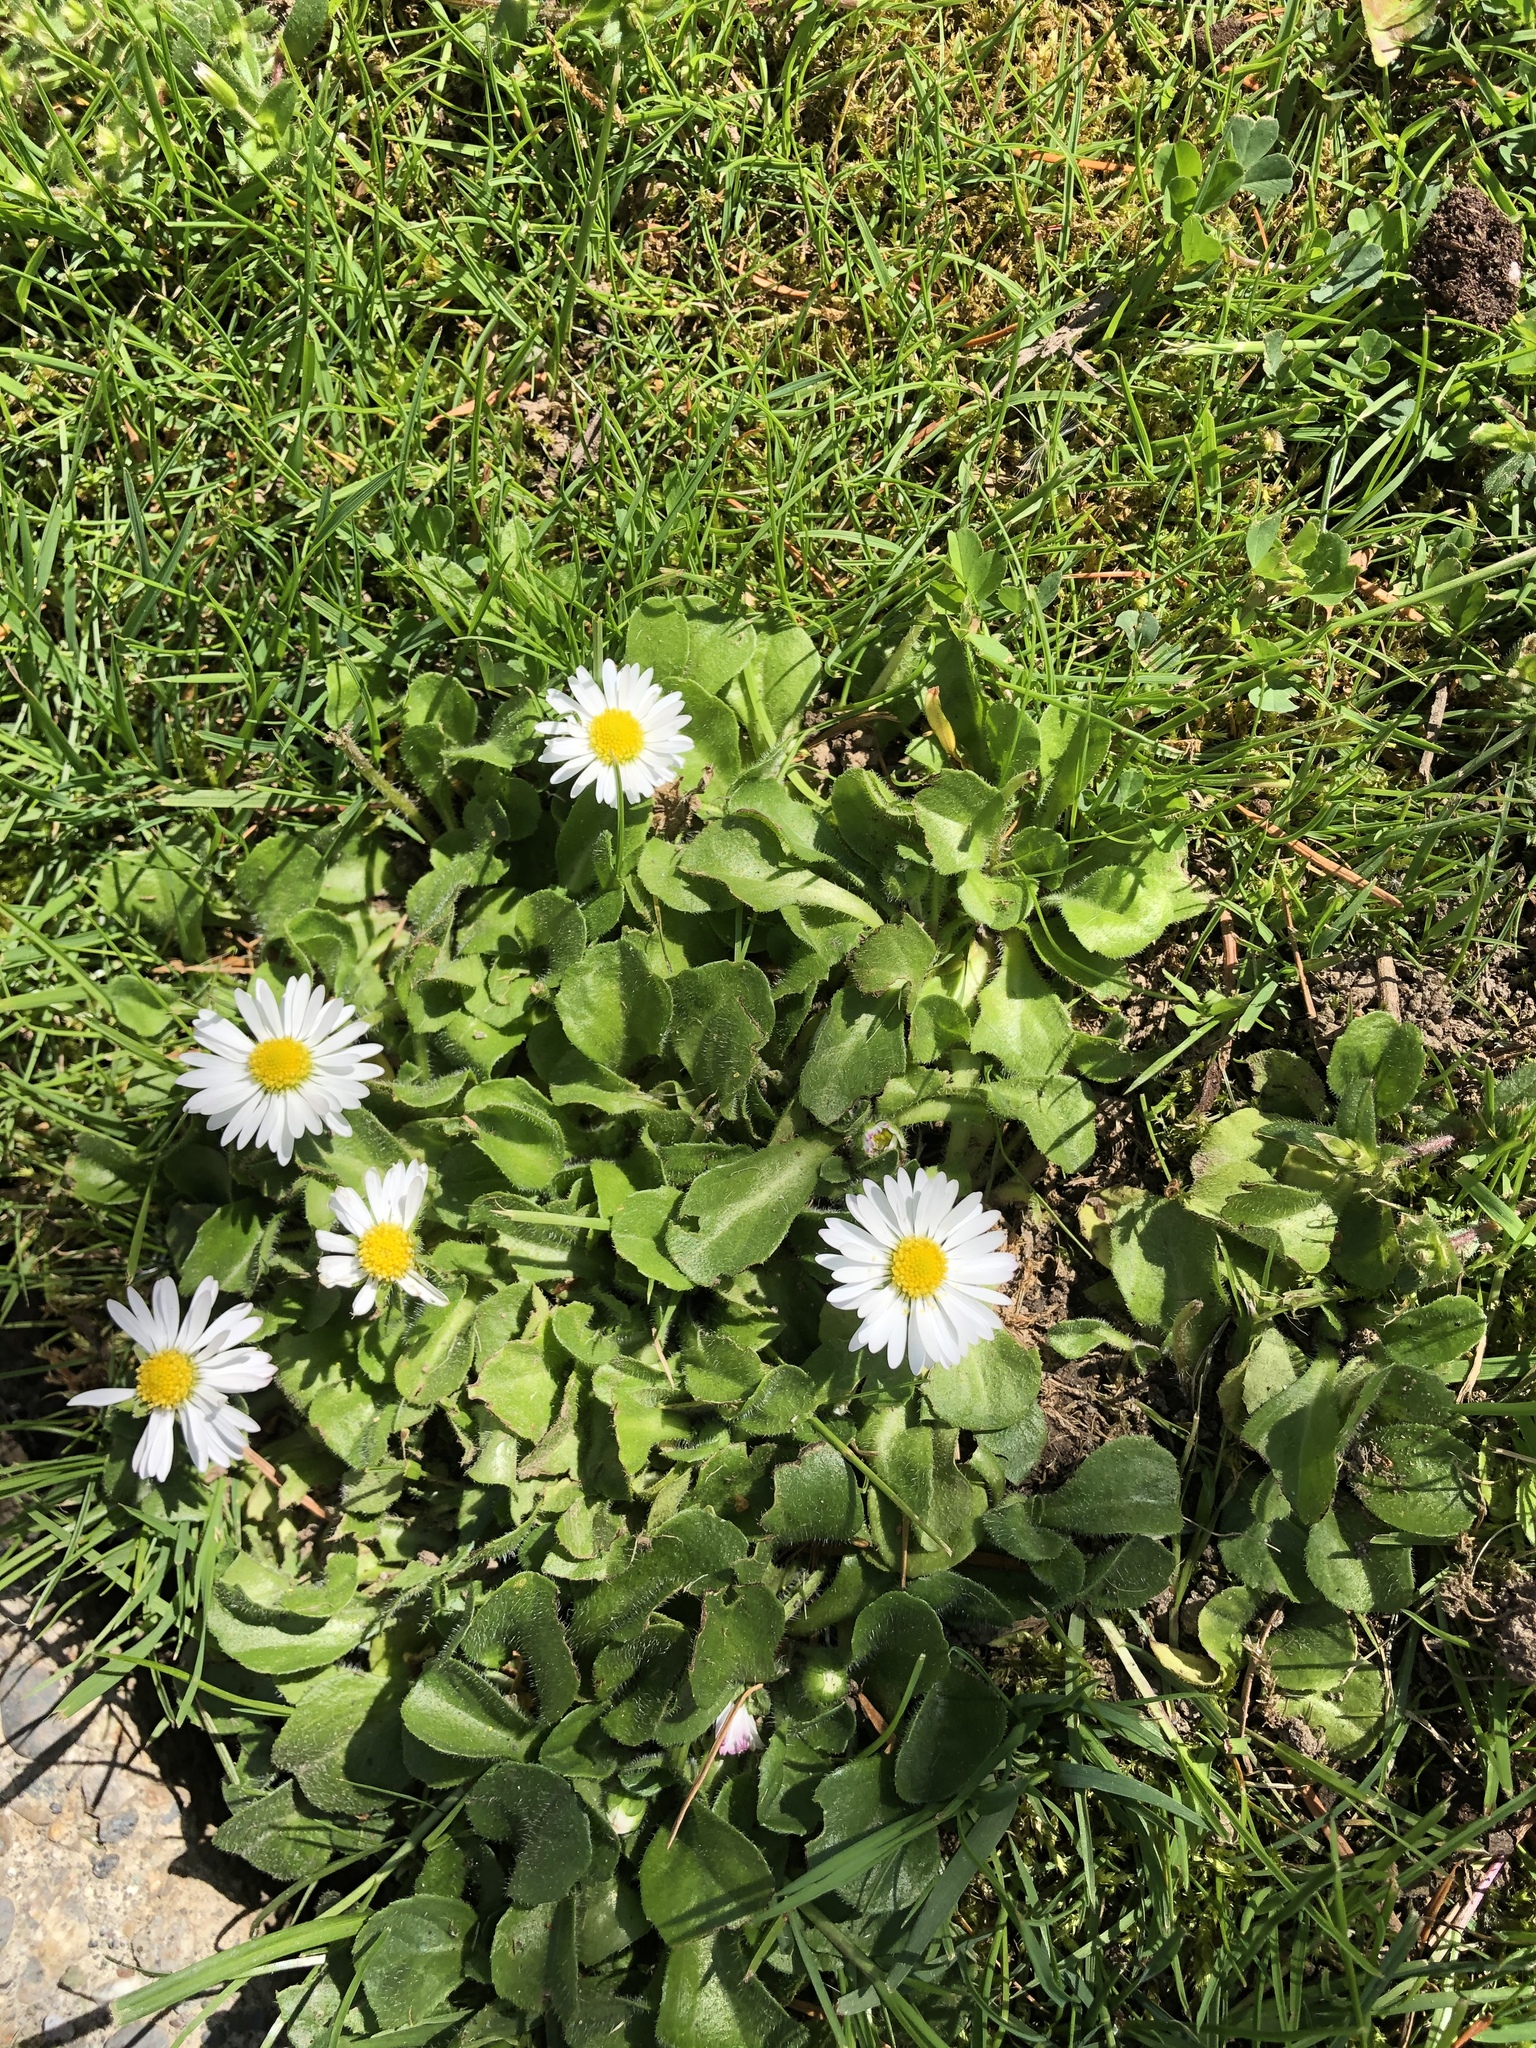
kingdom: Plantae
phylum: Tracheophyta
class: Magnoliopsida
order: Asterales
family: Asteraceae
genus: Bellis
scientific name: Bellis perennis
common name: Lawndaisy
